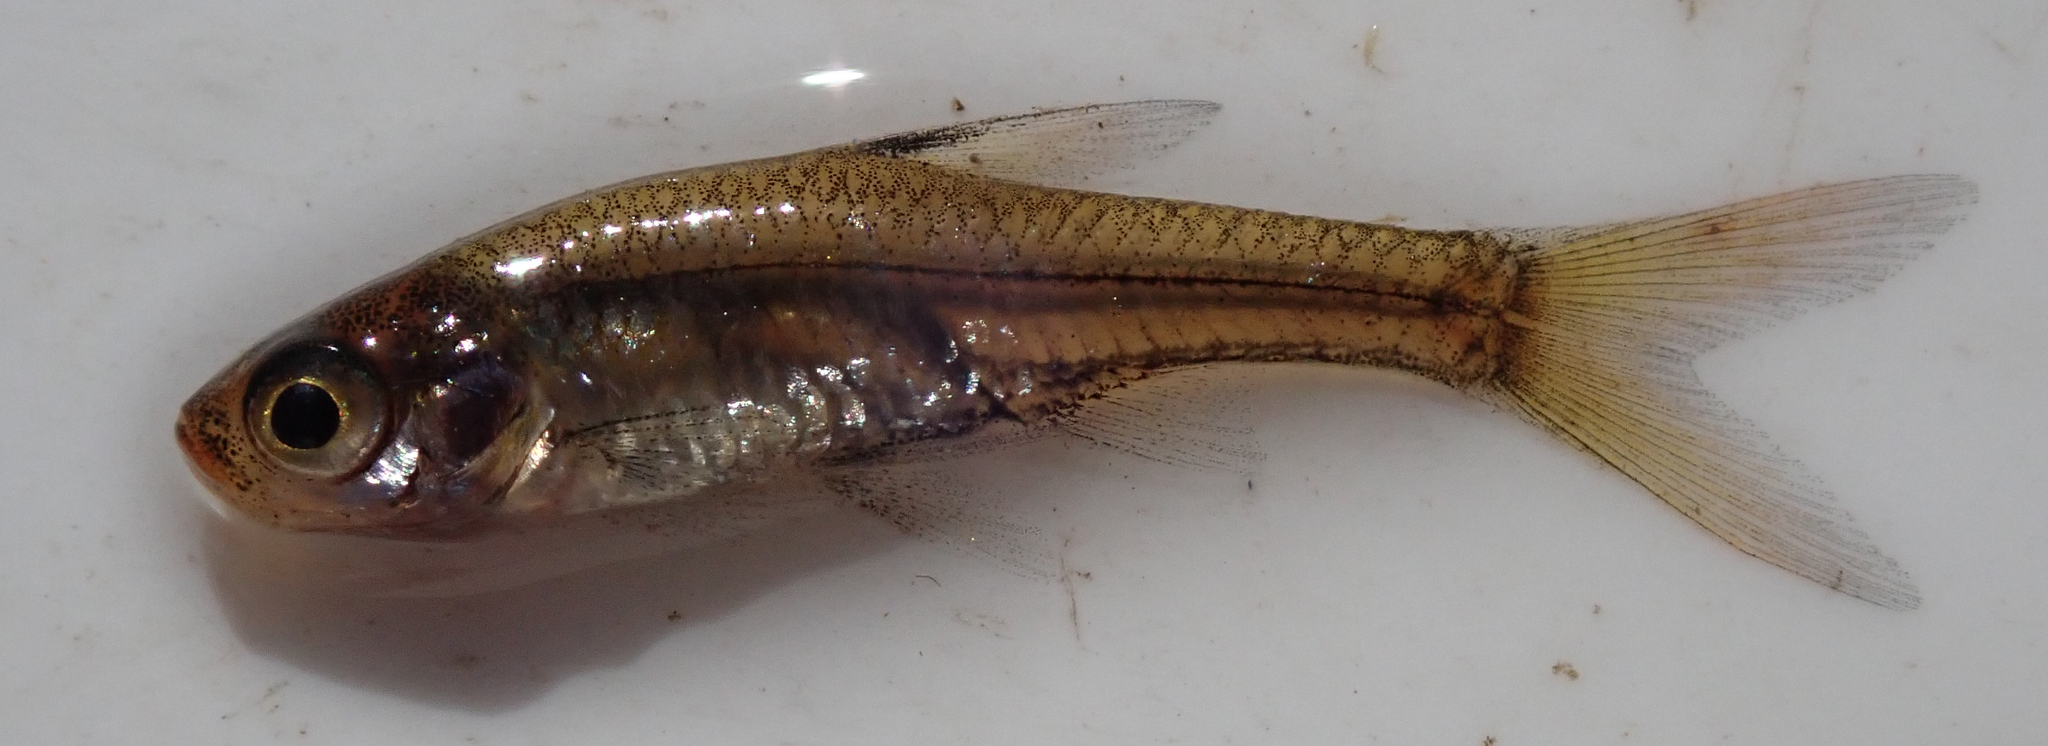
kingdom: Animalia
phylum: Chordata
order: Cypriniformes
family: Cyprinidae
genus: Coptostomabarbus
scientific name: Coptostomabarbus wittei
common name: Upjaw barb
